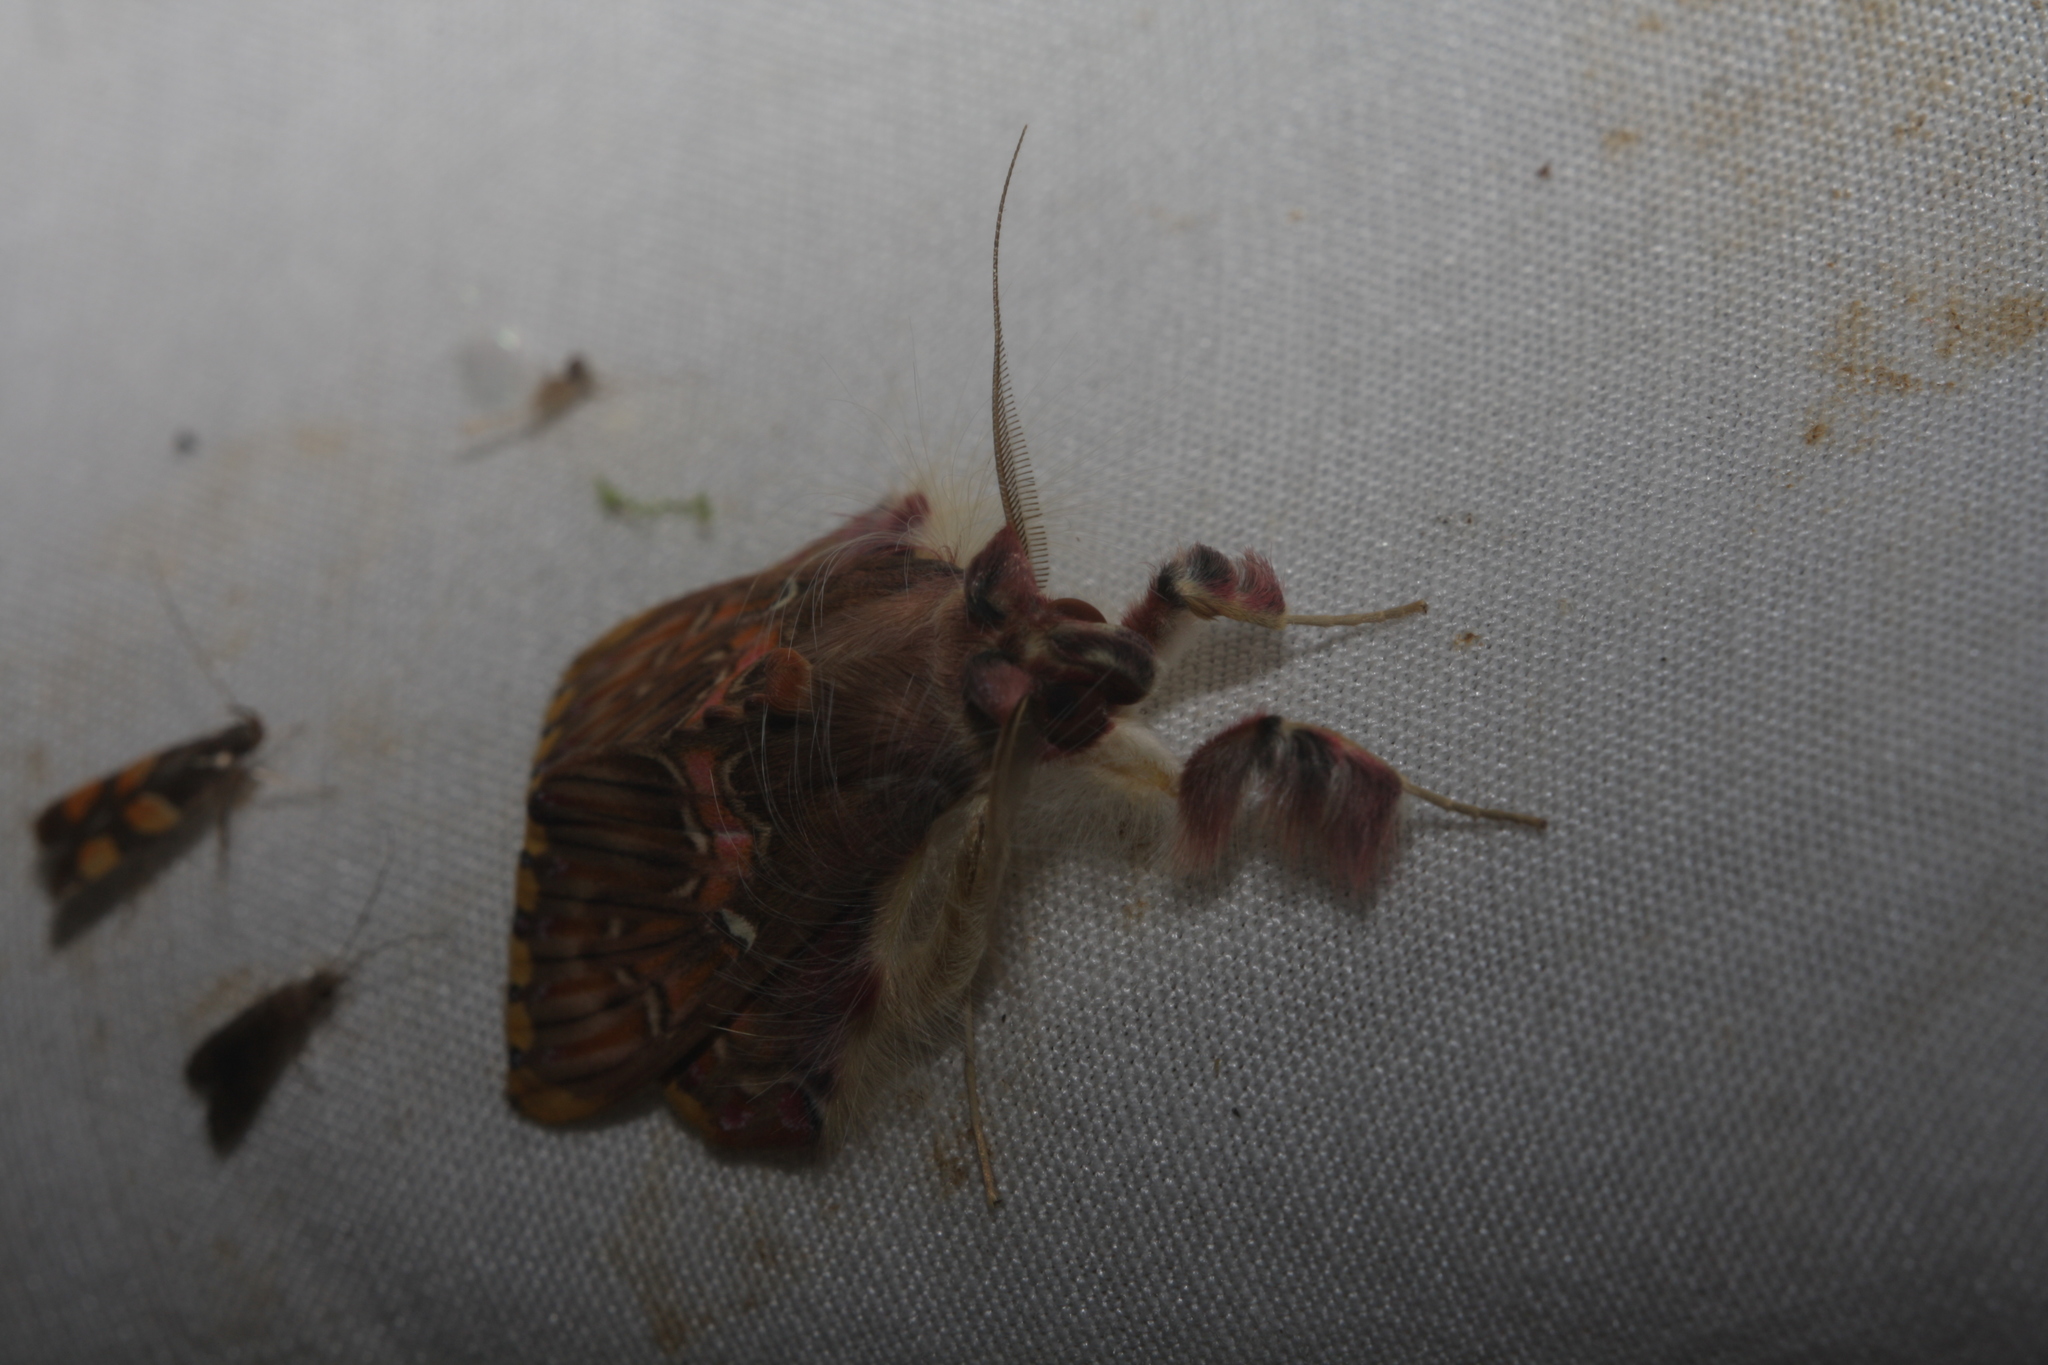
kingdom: Animalia
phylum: Arthropoda
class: Insecta
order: Lepidoptera
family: Erebidae
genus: Sosxetra
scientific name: Sosxetra grata
